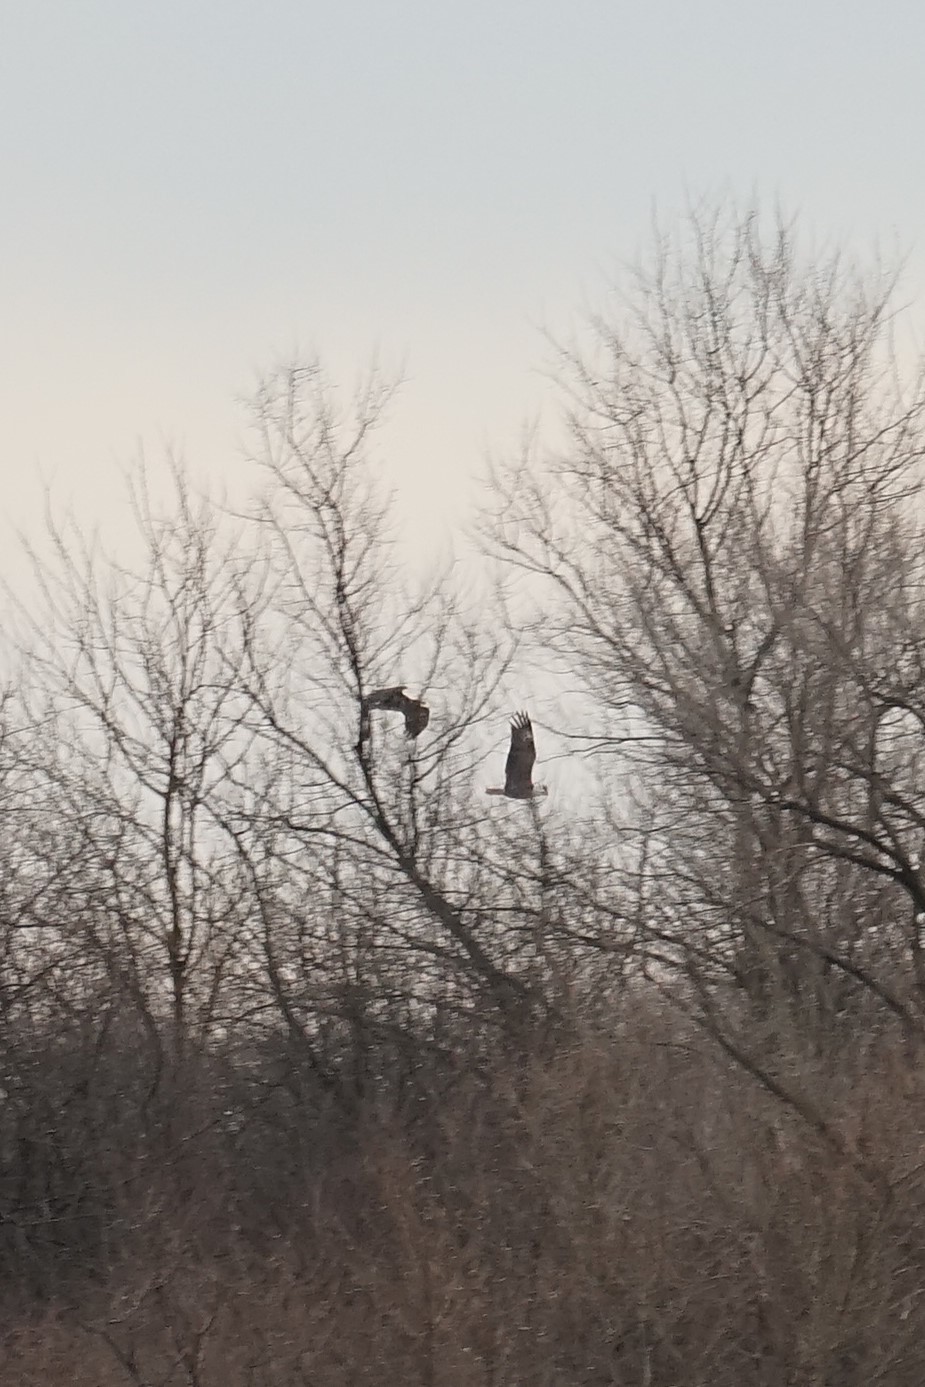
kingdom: Animalia
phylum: Chordata
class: Aves
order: Accipitriformes
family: Accipitridae
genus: Haliaeetus
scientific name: Haliaeetus leucocephalus
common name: Bald eagle
